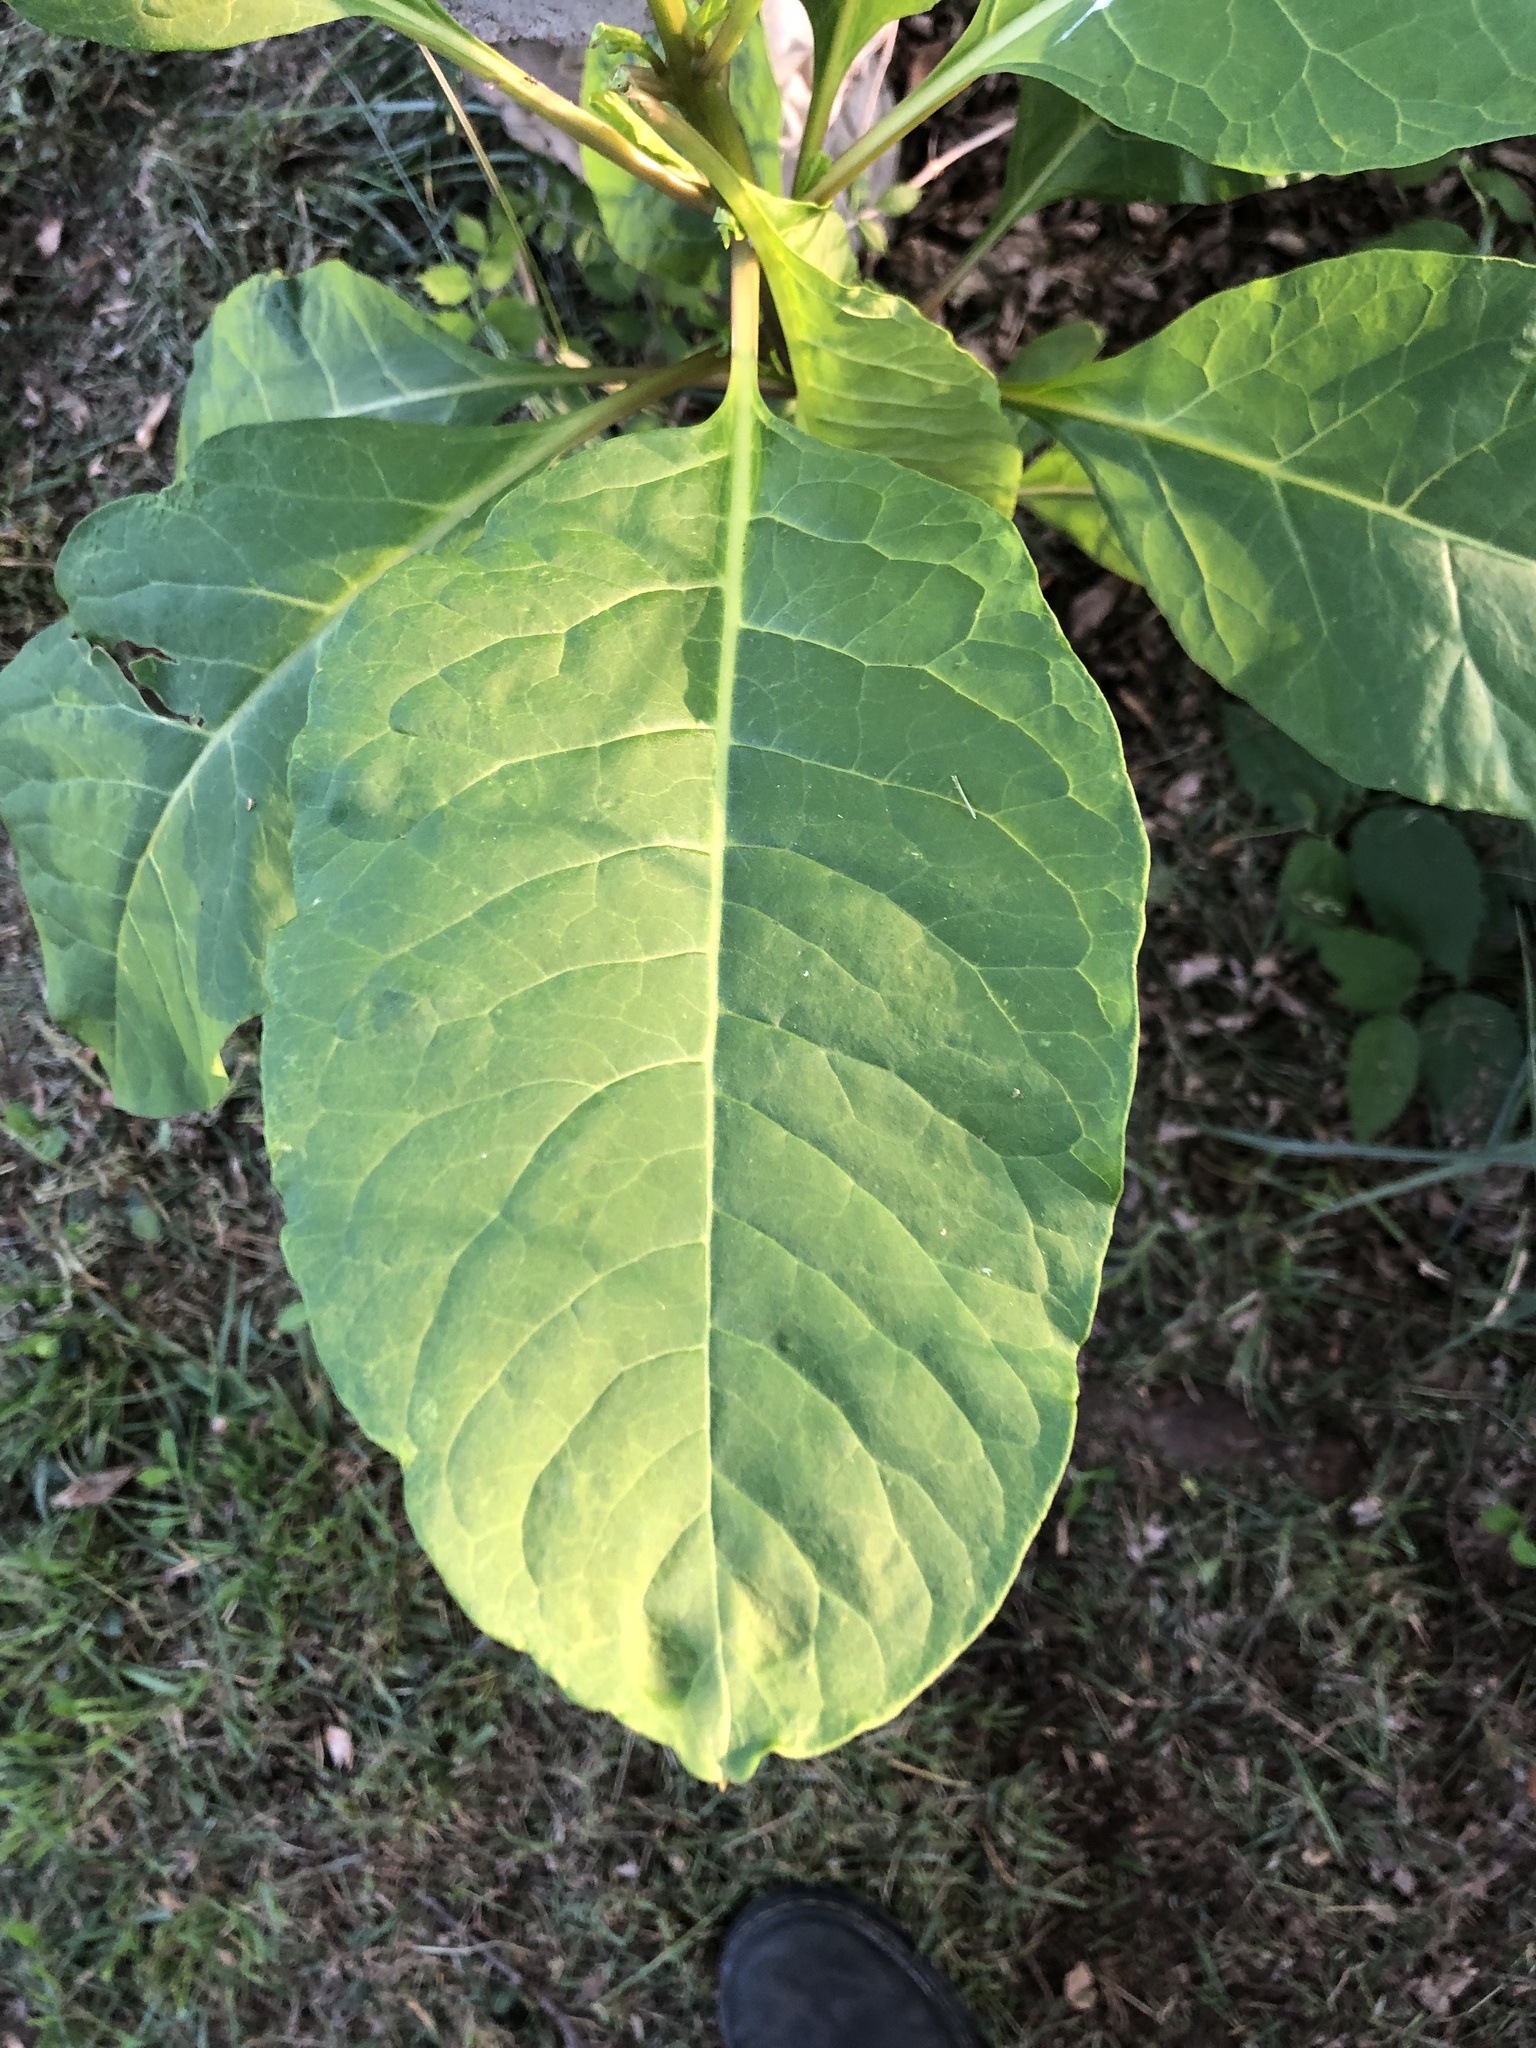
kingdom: Plantae
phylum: Tracheophyta
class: Magnoliopsida
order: Caryophyllales
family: Phytolaccaceae
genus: Phytolacca
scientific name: Phytolacca americana
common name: American pokeweed
